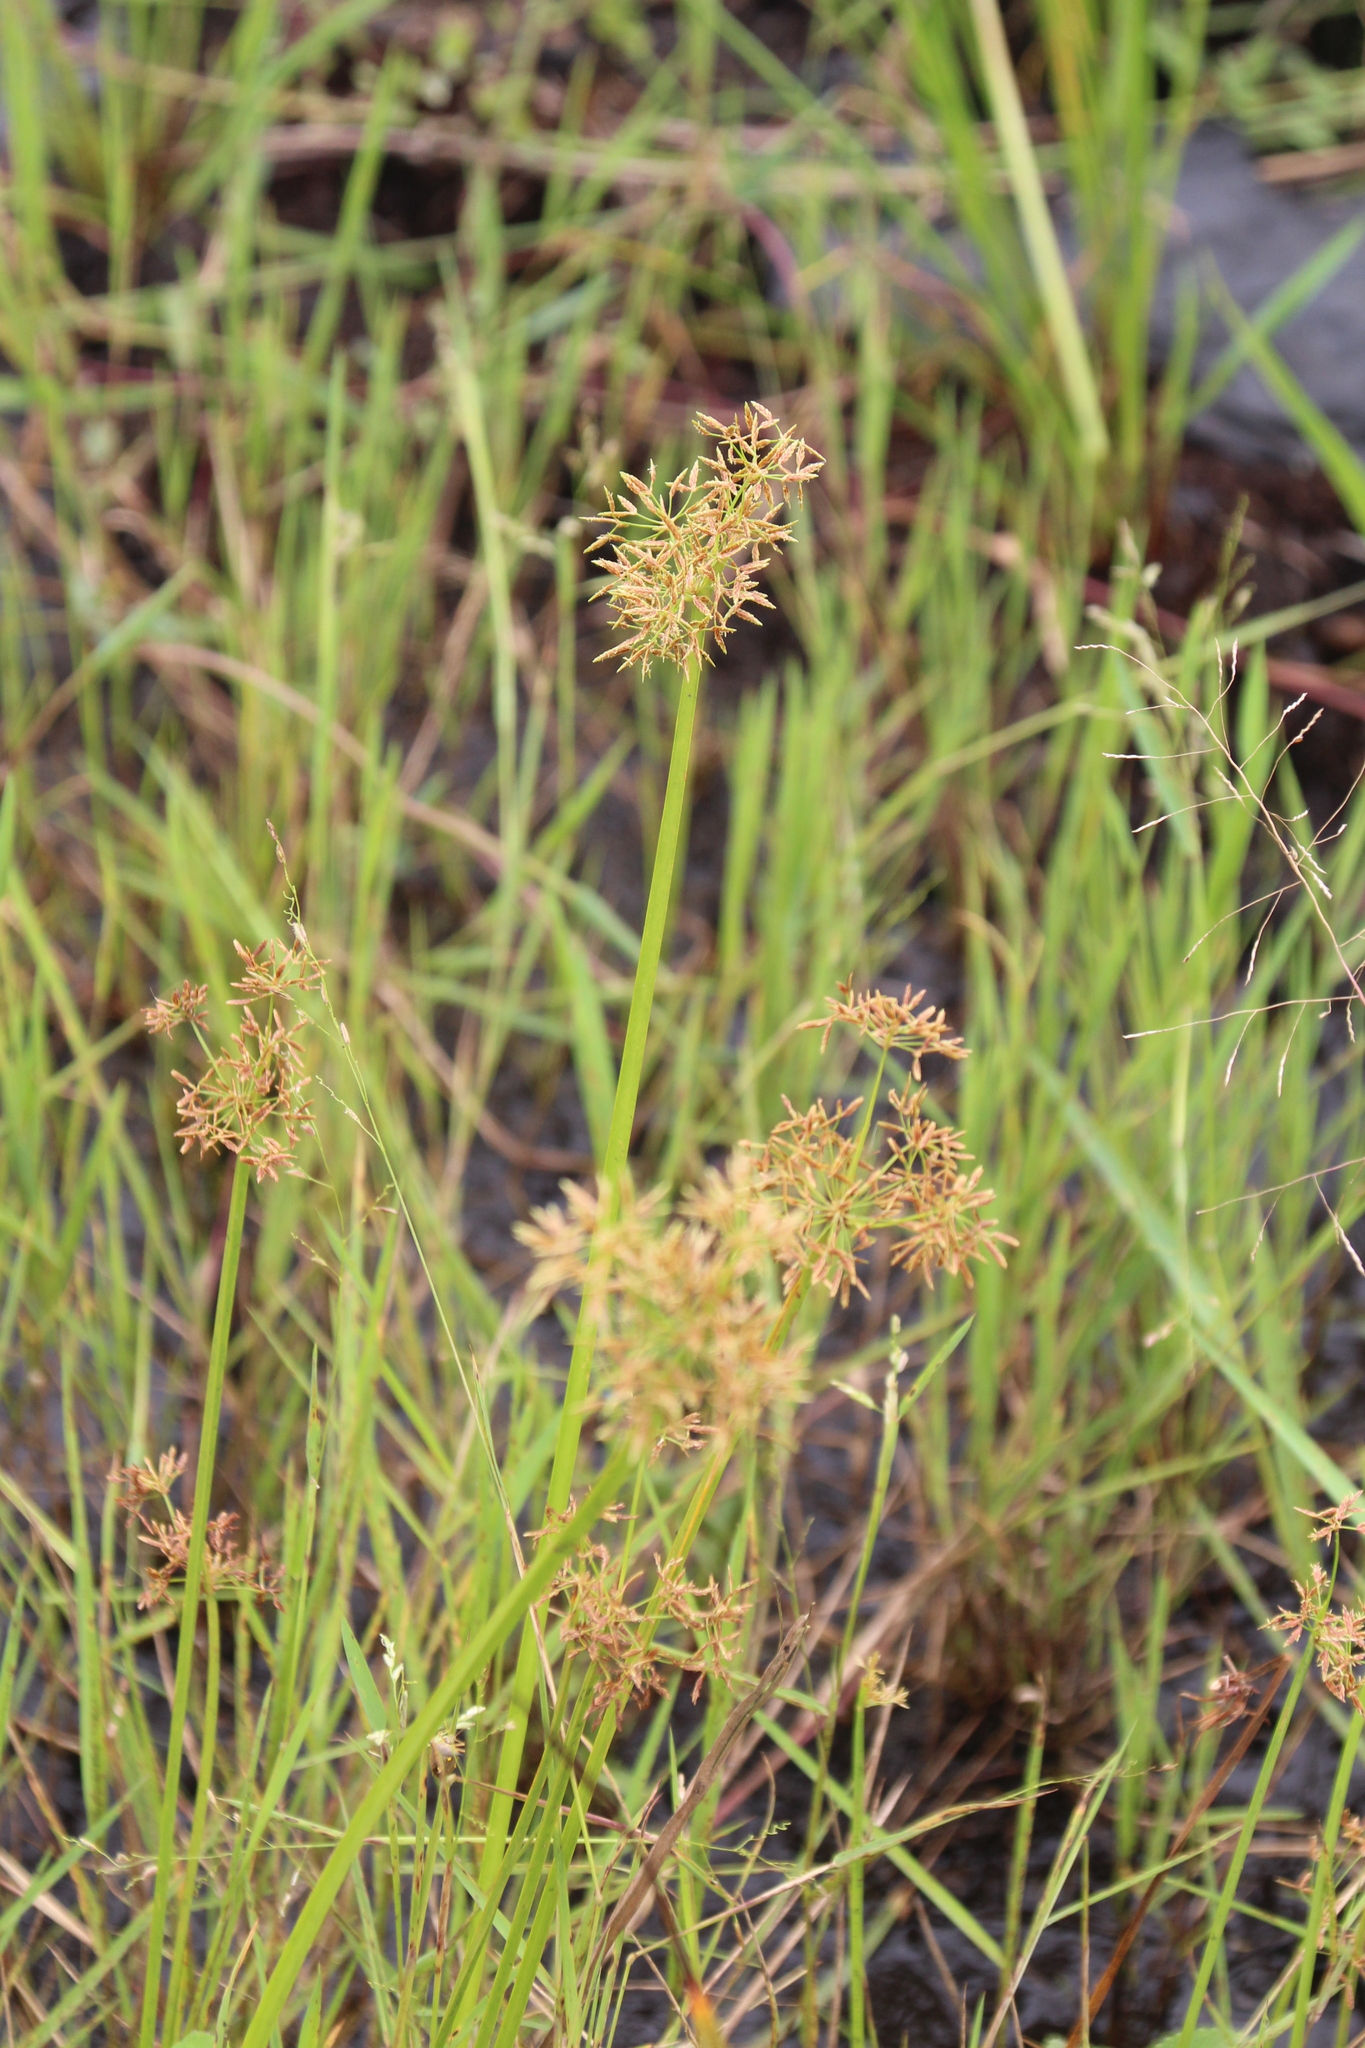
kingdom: Plantae
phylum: Tracheophyta
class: Liliopsida
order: Poales
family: Cyperaceae
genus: Cyperus
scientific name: Cyperus denudatus
